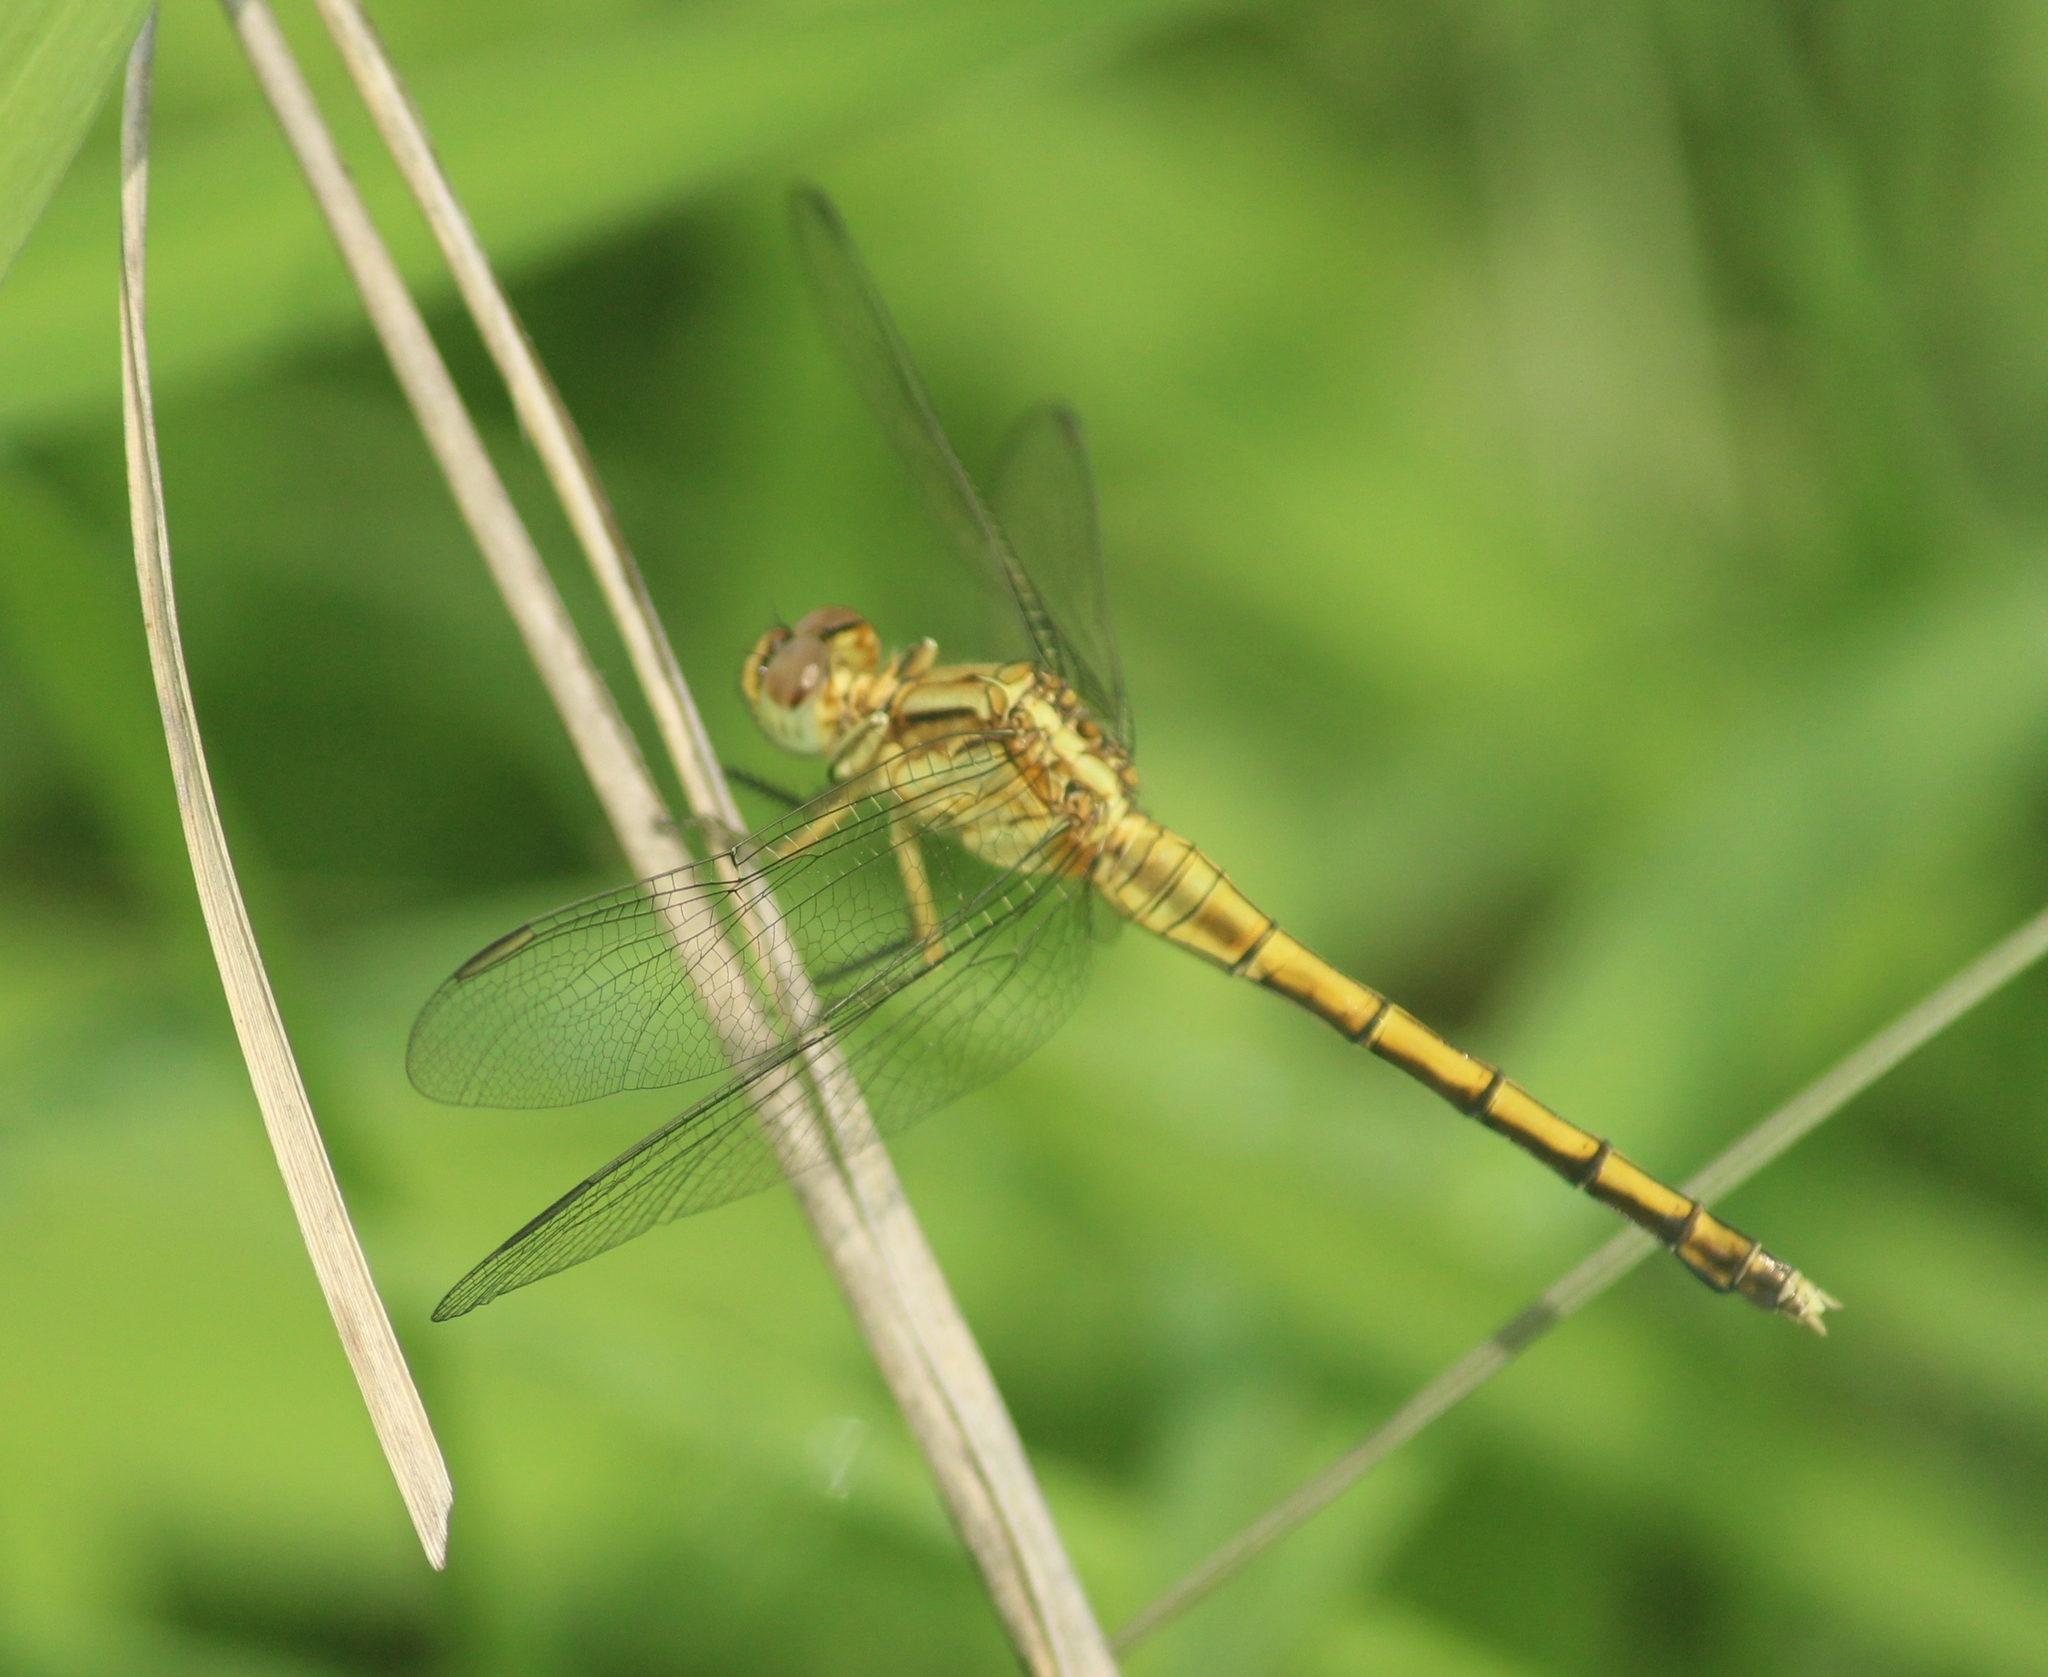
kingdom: Animalia
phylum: Arthropoda
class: Insecta
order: Odonata
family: Libellulidae
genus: Orthetrum
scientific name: Orthetrum luzonicum
